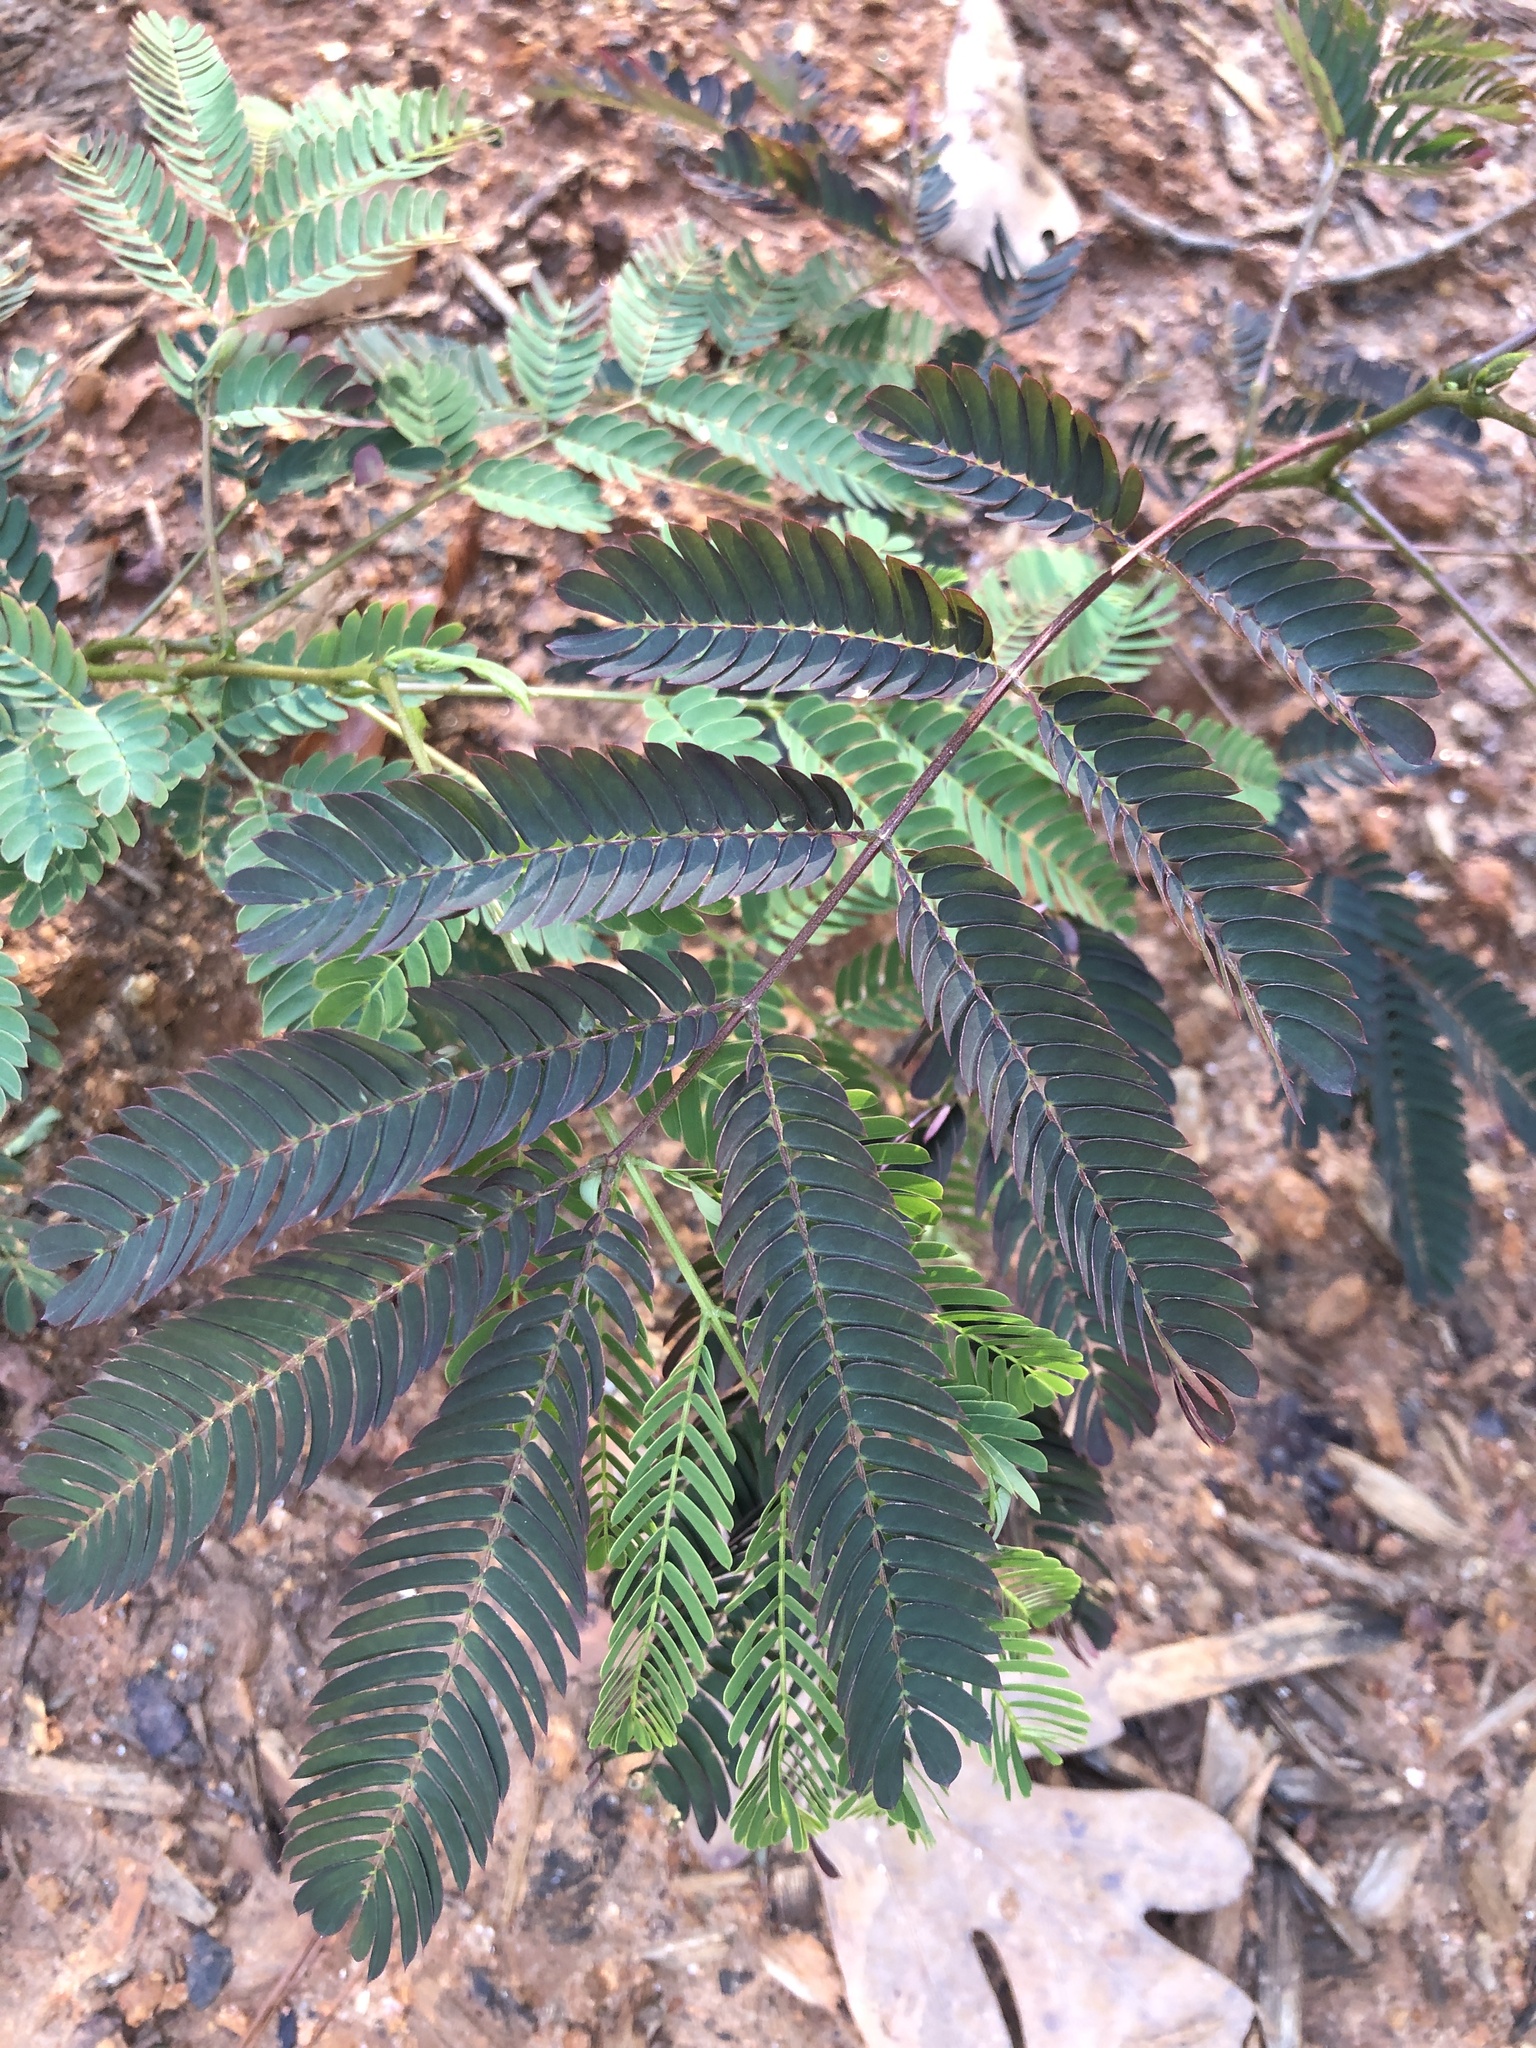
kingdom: Plantae
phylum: Tracheophyta
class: Magnoliopsida
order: Fabales
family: Fabaceae
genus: Albizia
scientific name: Albizia julibrissin
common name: Silktree
